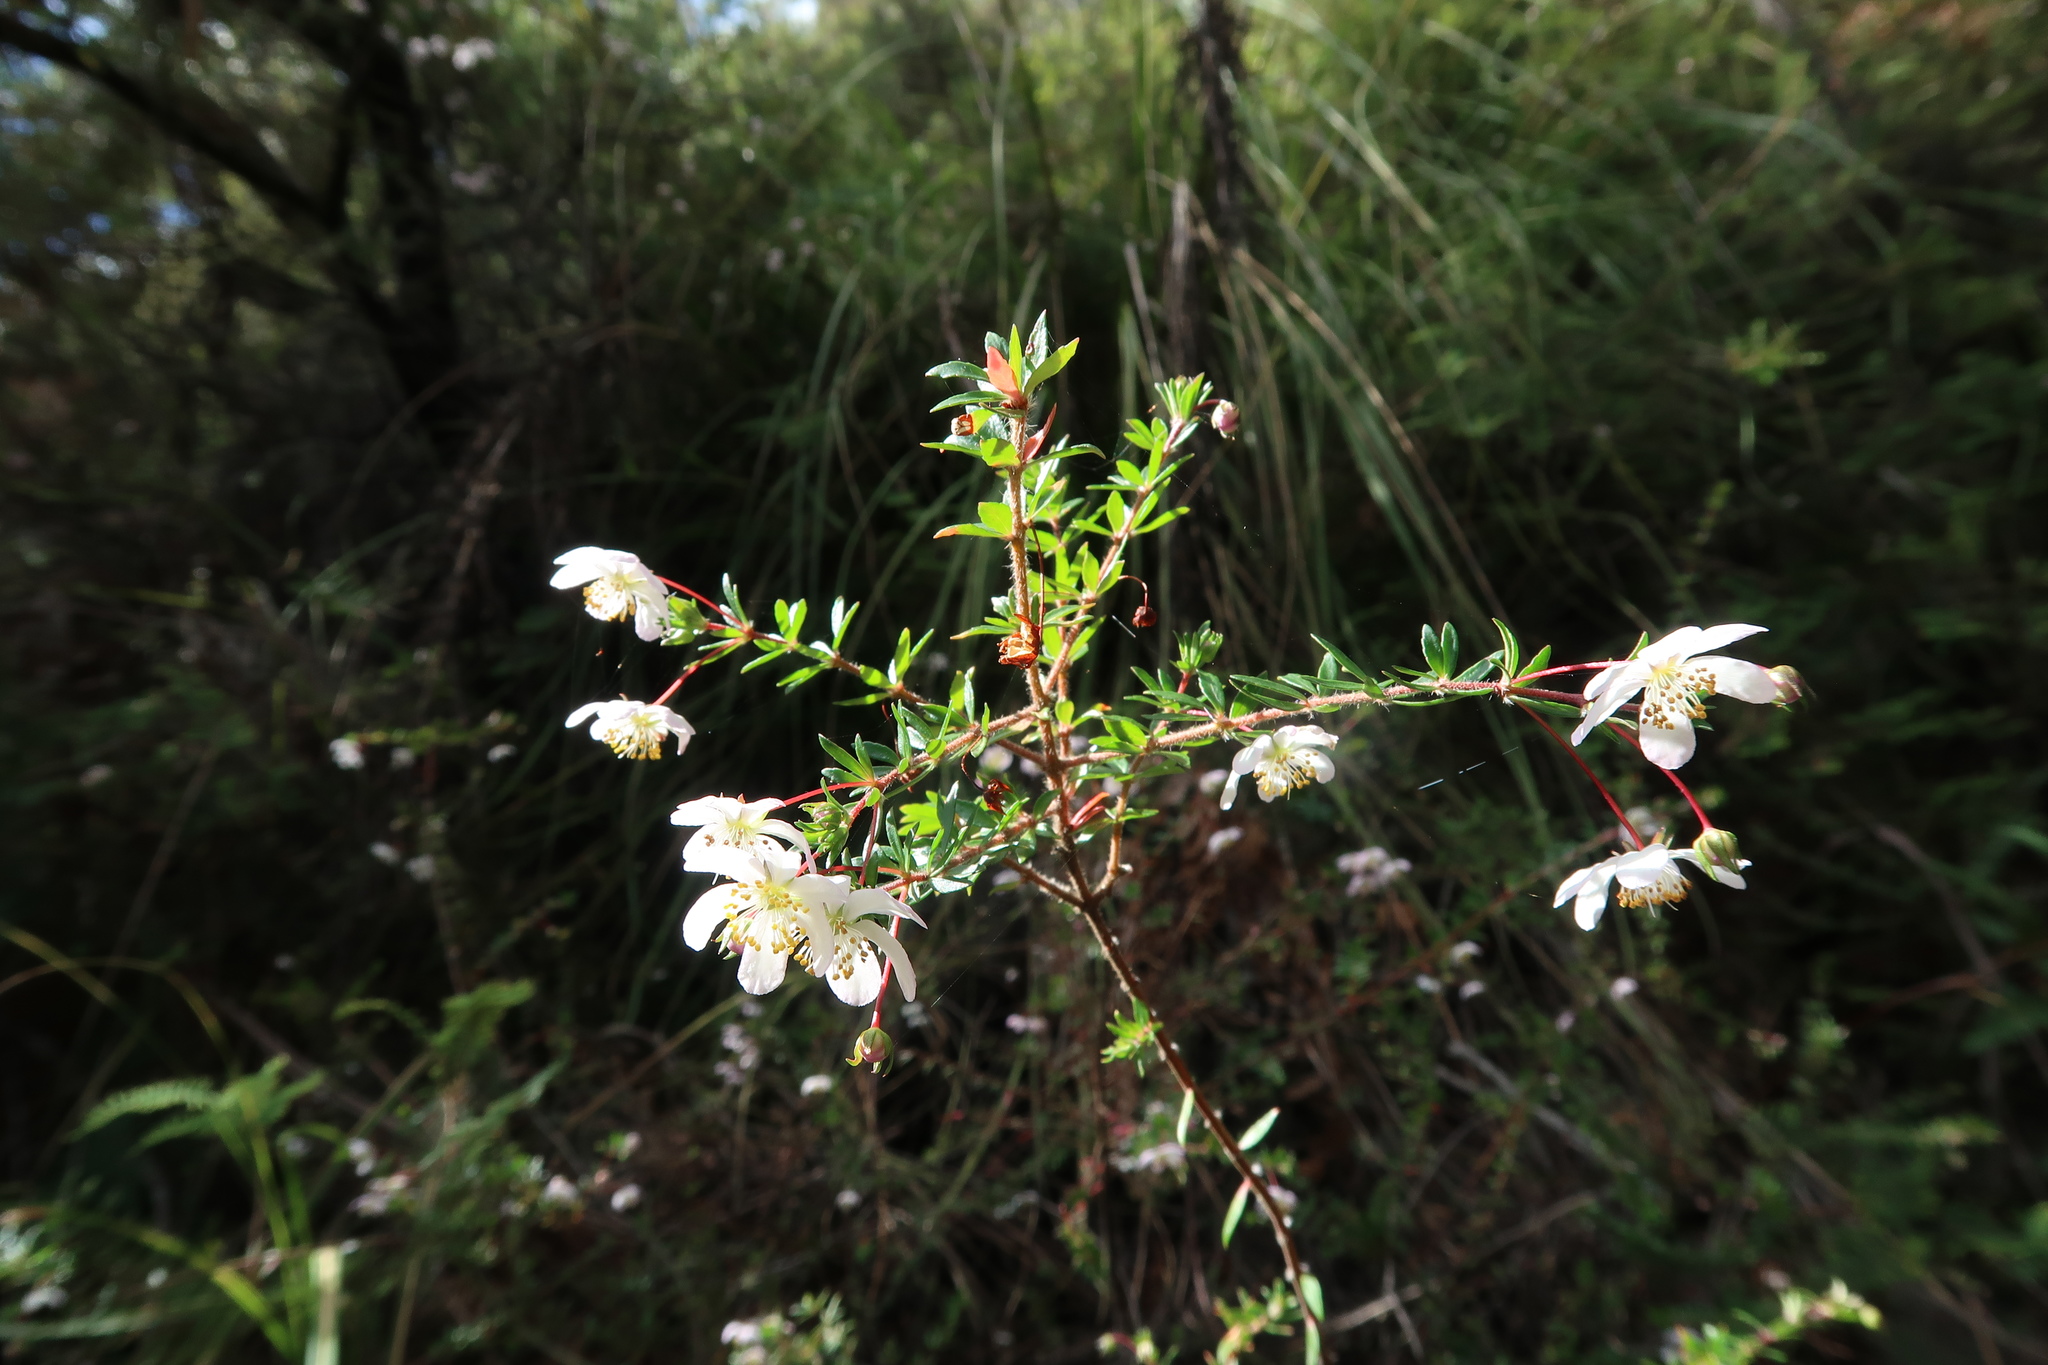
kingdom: Plantae
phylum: Tracheophyta
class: Magnoliopsida
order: Oxalidales
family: Cunoniaceae
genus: Bauera
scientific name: Bauera rubioides
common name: River-rose
